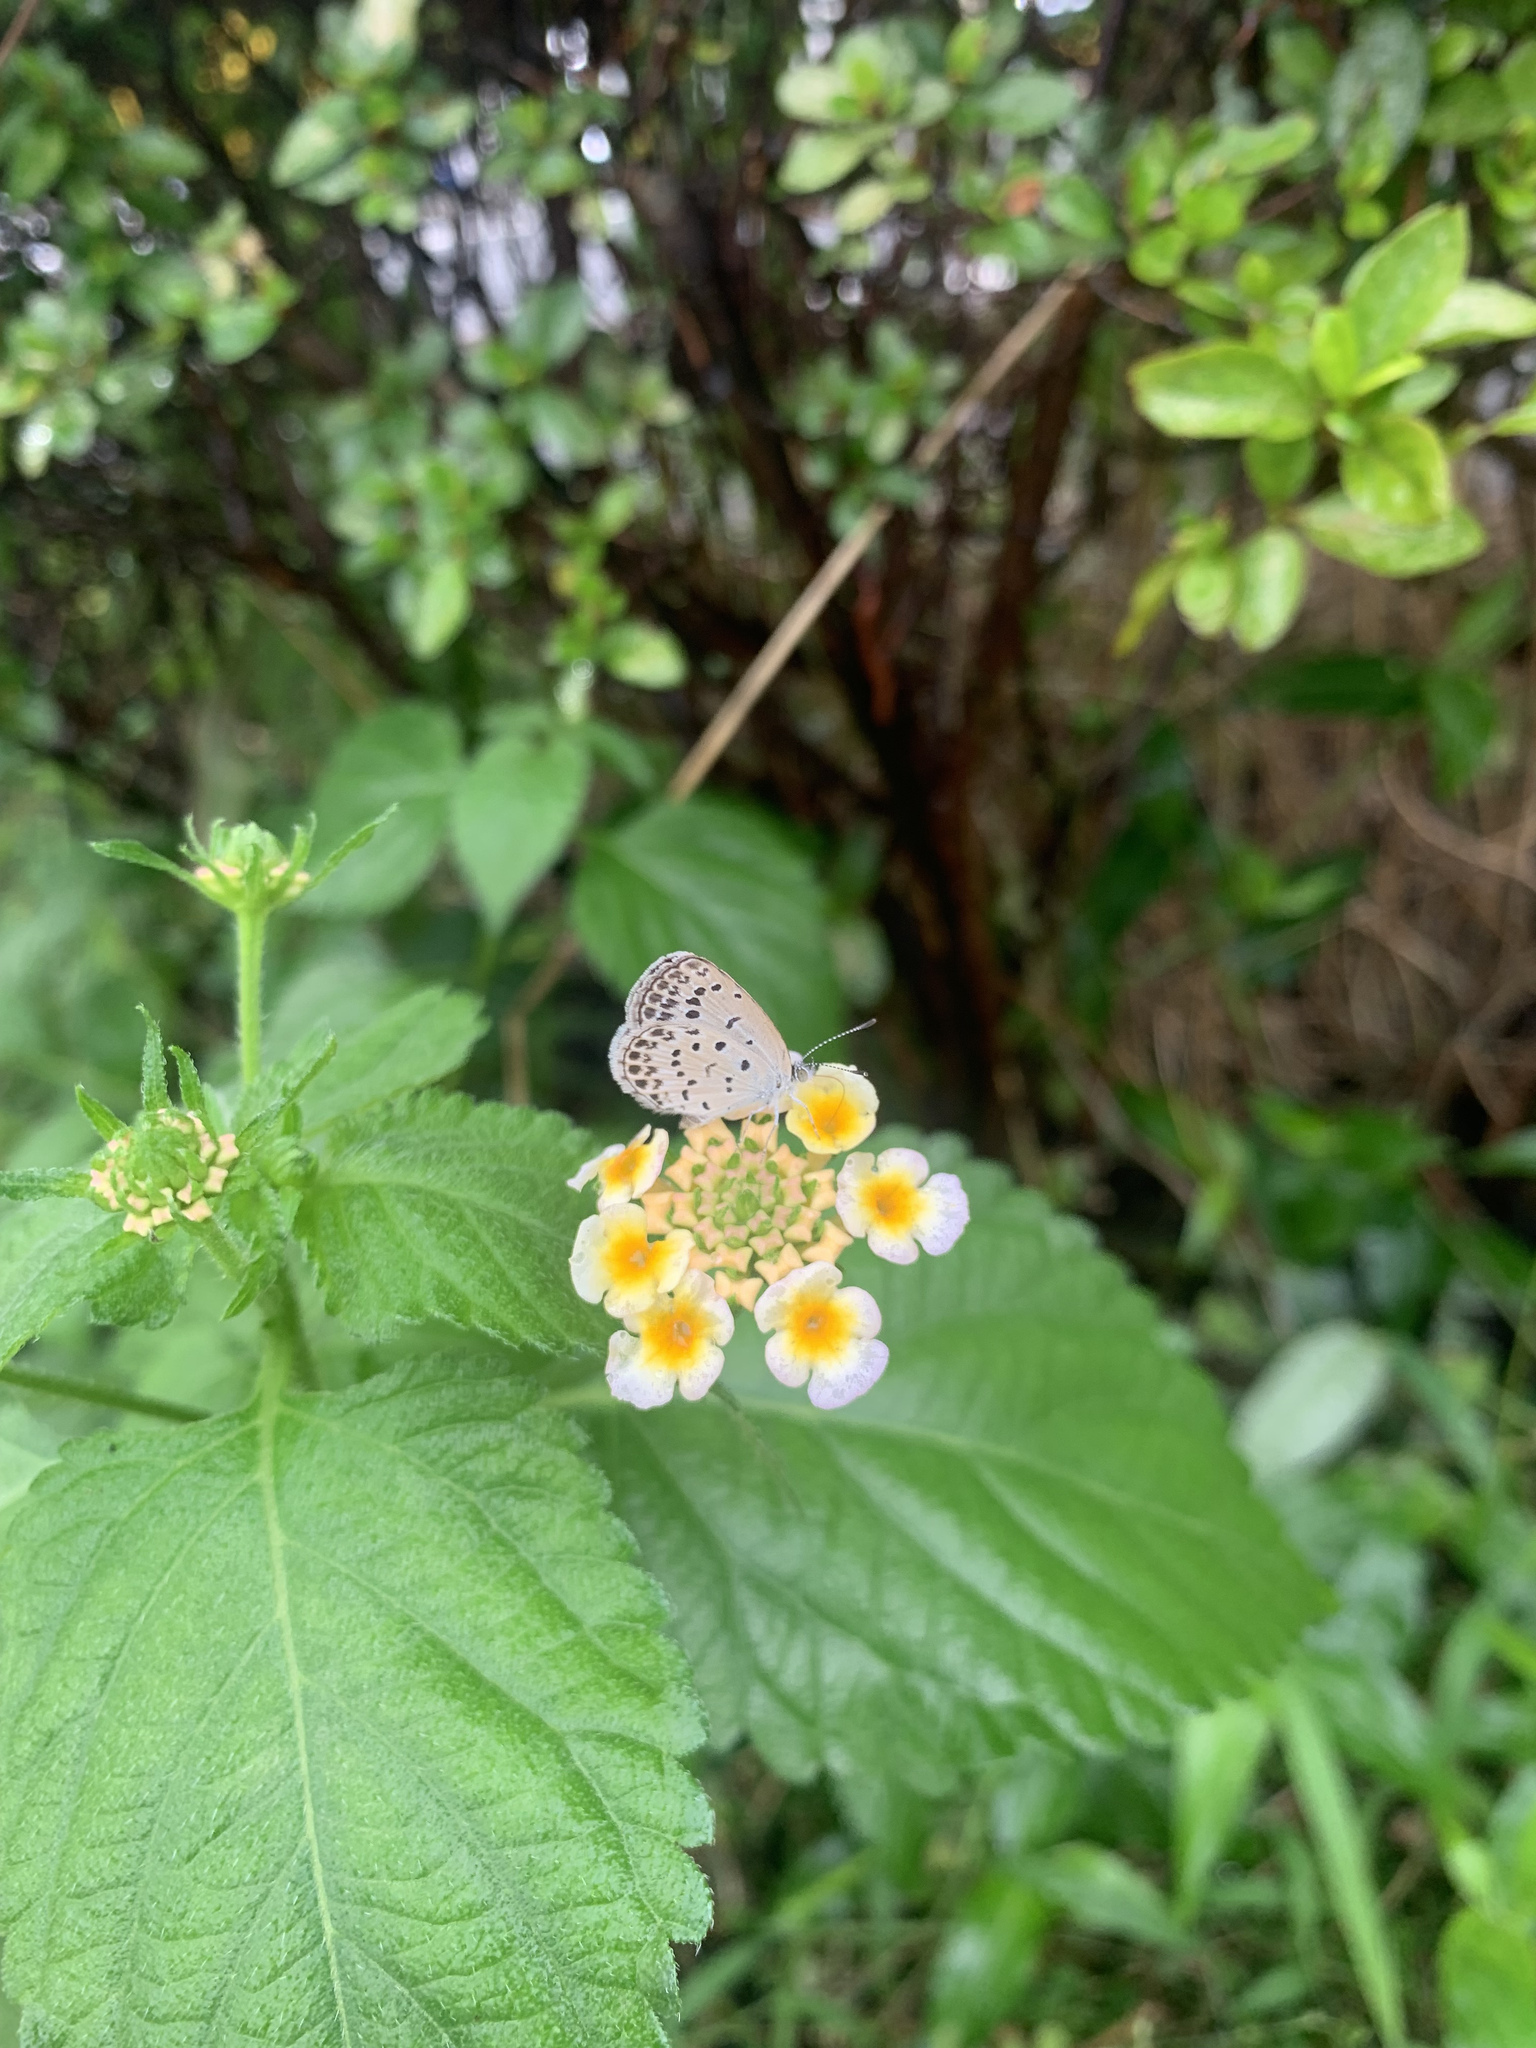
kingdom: Animalia
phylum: Arthropoda
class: Insecta
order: Lepidoptera
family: Lycaenidae
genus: Pseudozizeeria
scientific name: Pseudozizeeria maha
